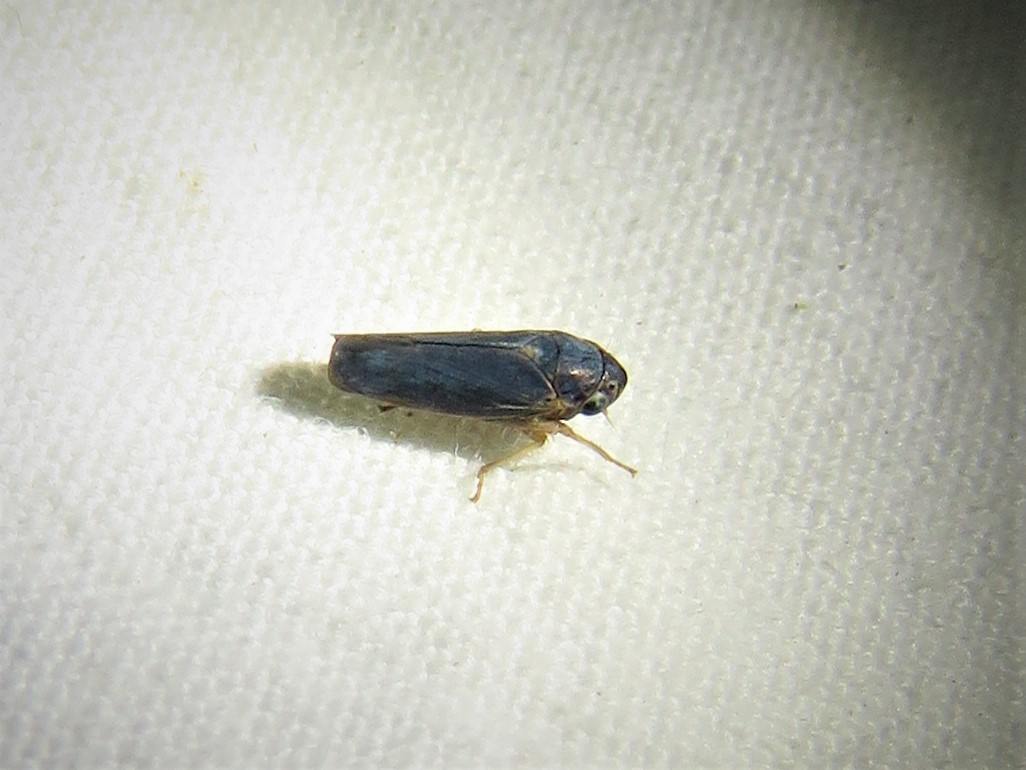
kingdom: Animalia
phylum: Arthropoda
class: Insecta
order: Hemiptera
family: Cicadellidae
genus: Ciminius
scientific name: Ciminius hartii
